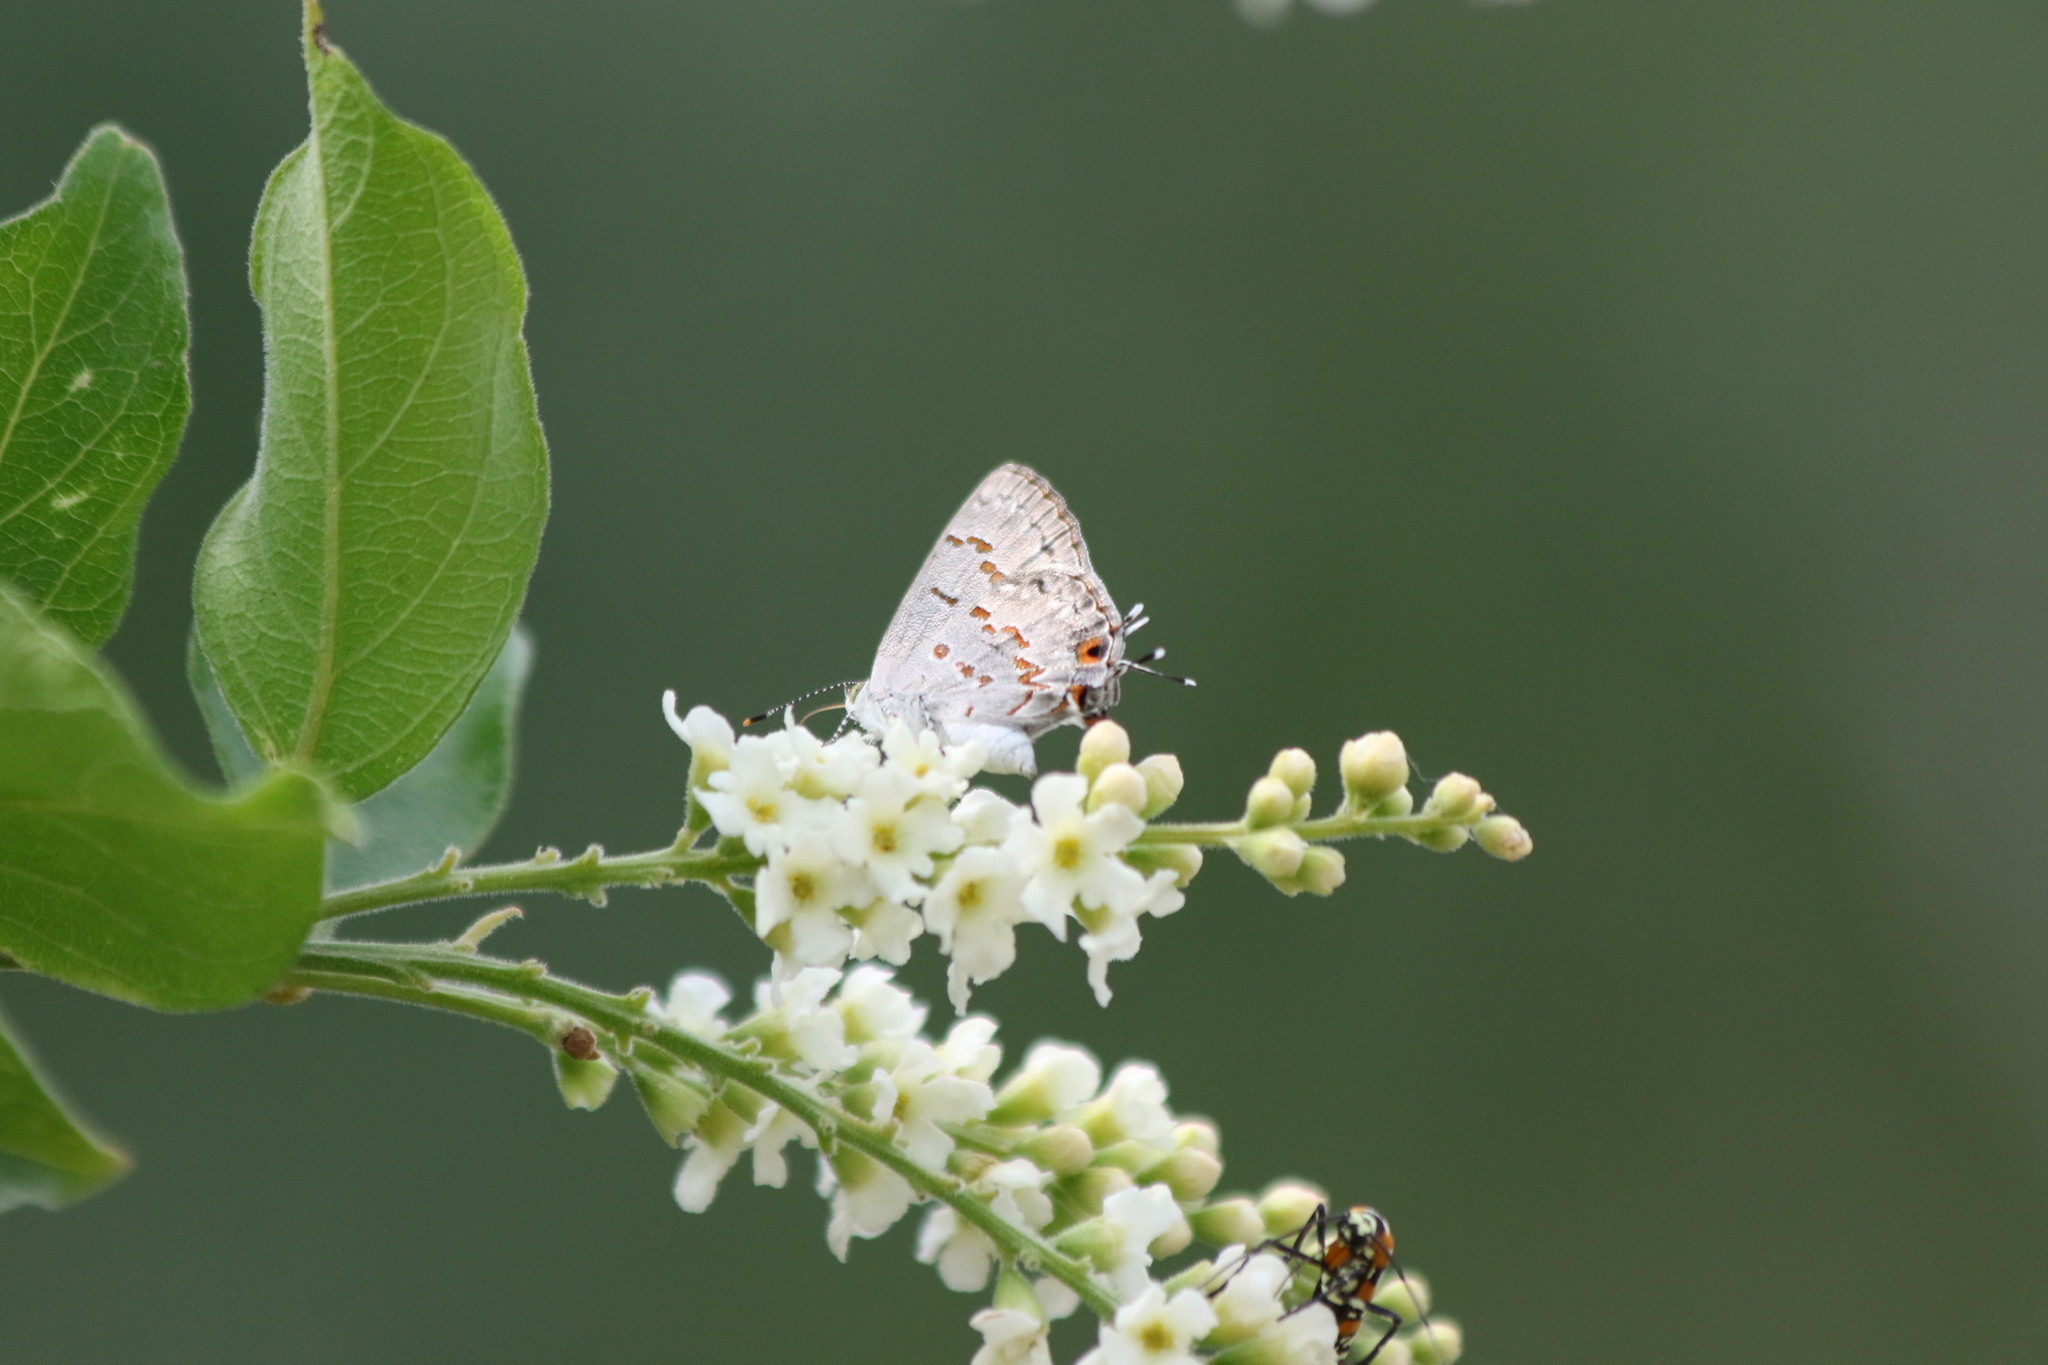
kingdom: Animalia
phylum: Arthropoda
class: Insecta
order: Lepidoptera
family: Lycaenidae
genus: Ministrymon
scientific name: Ministrymon clytie
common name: Clytie ministreak
